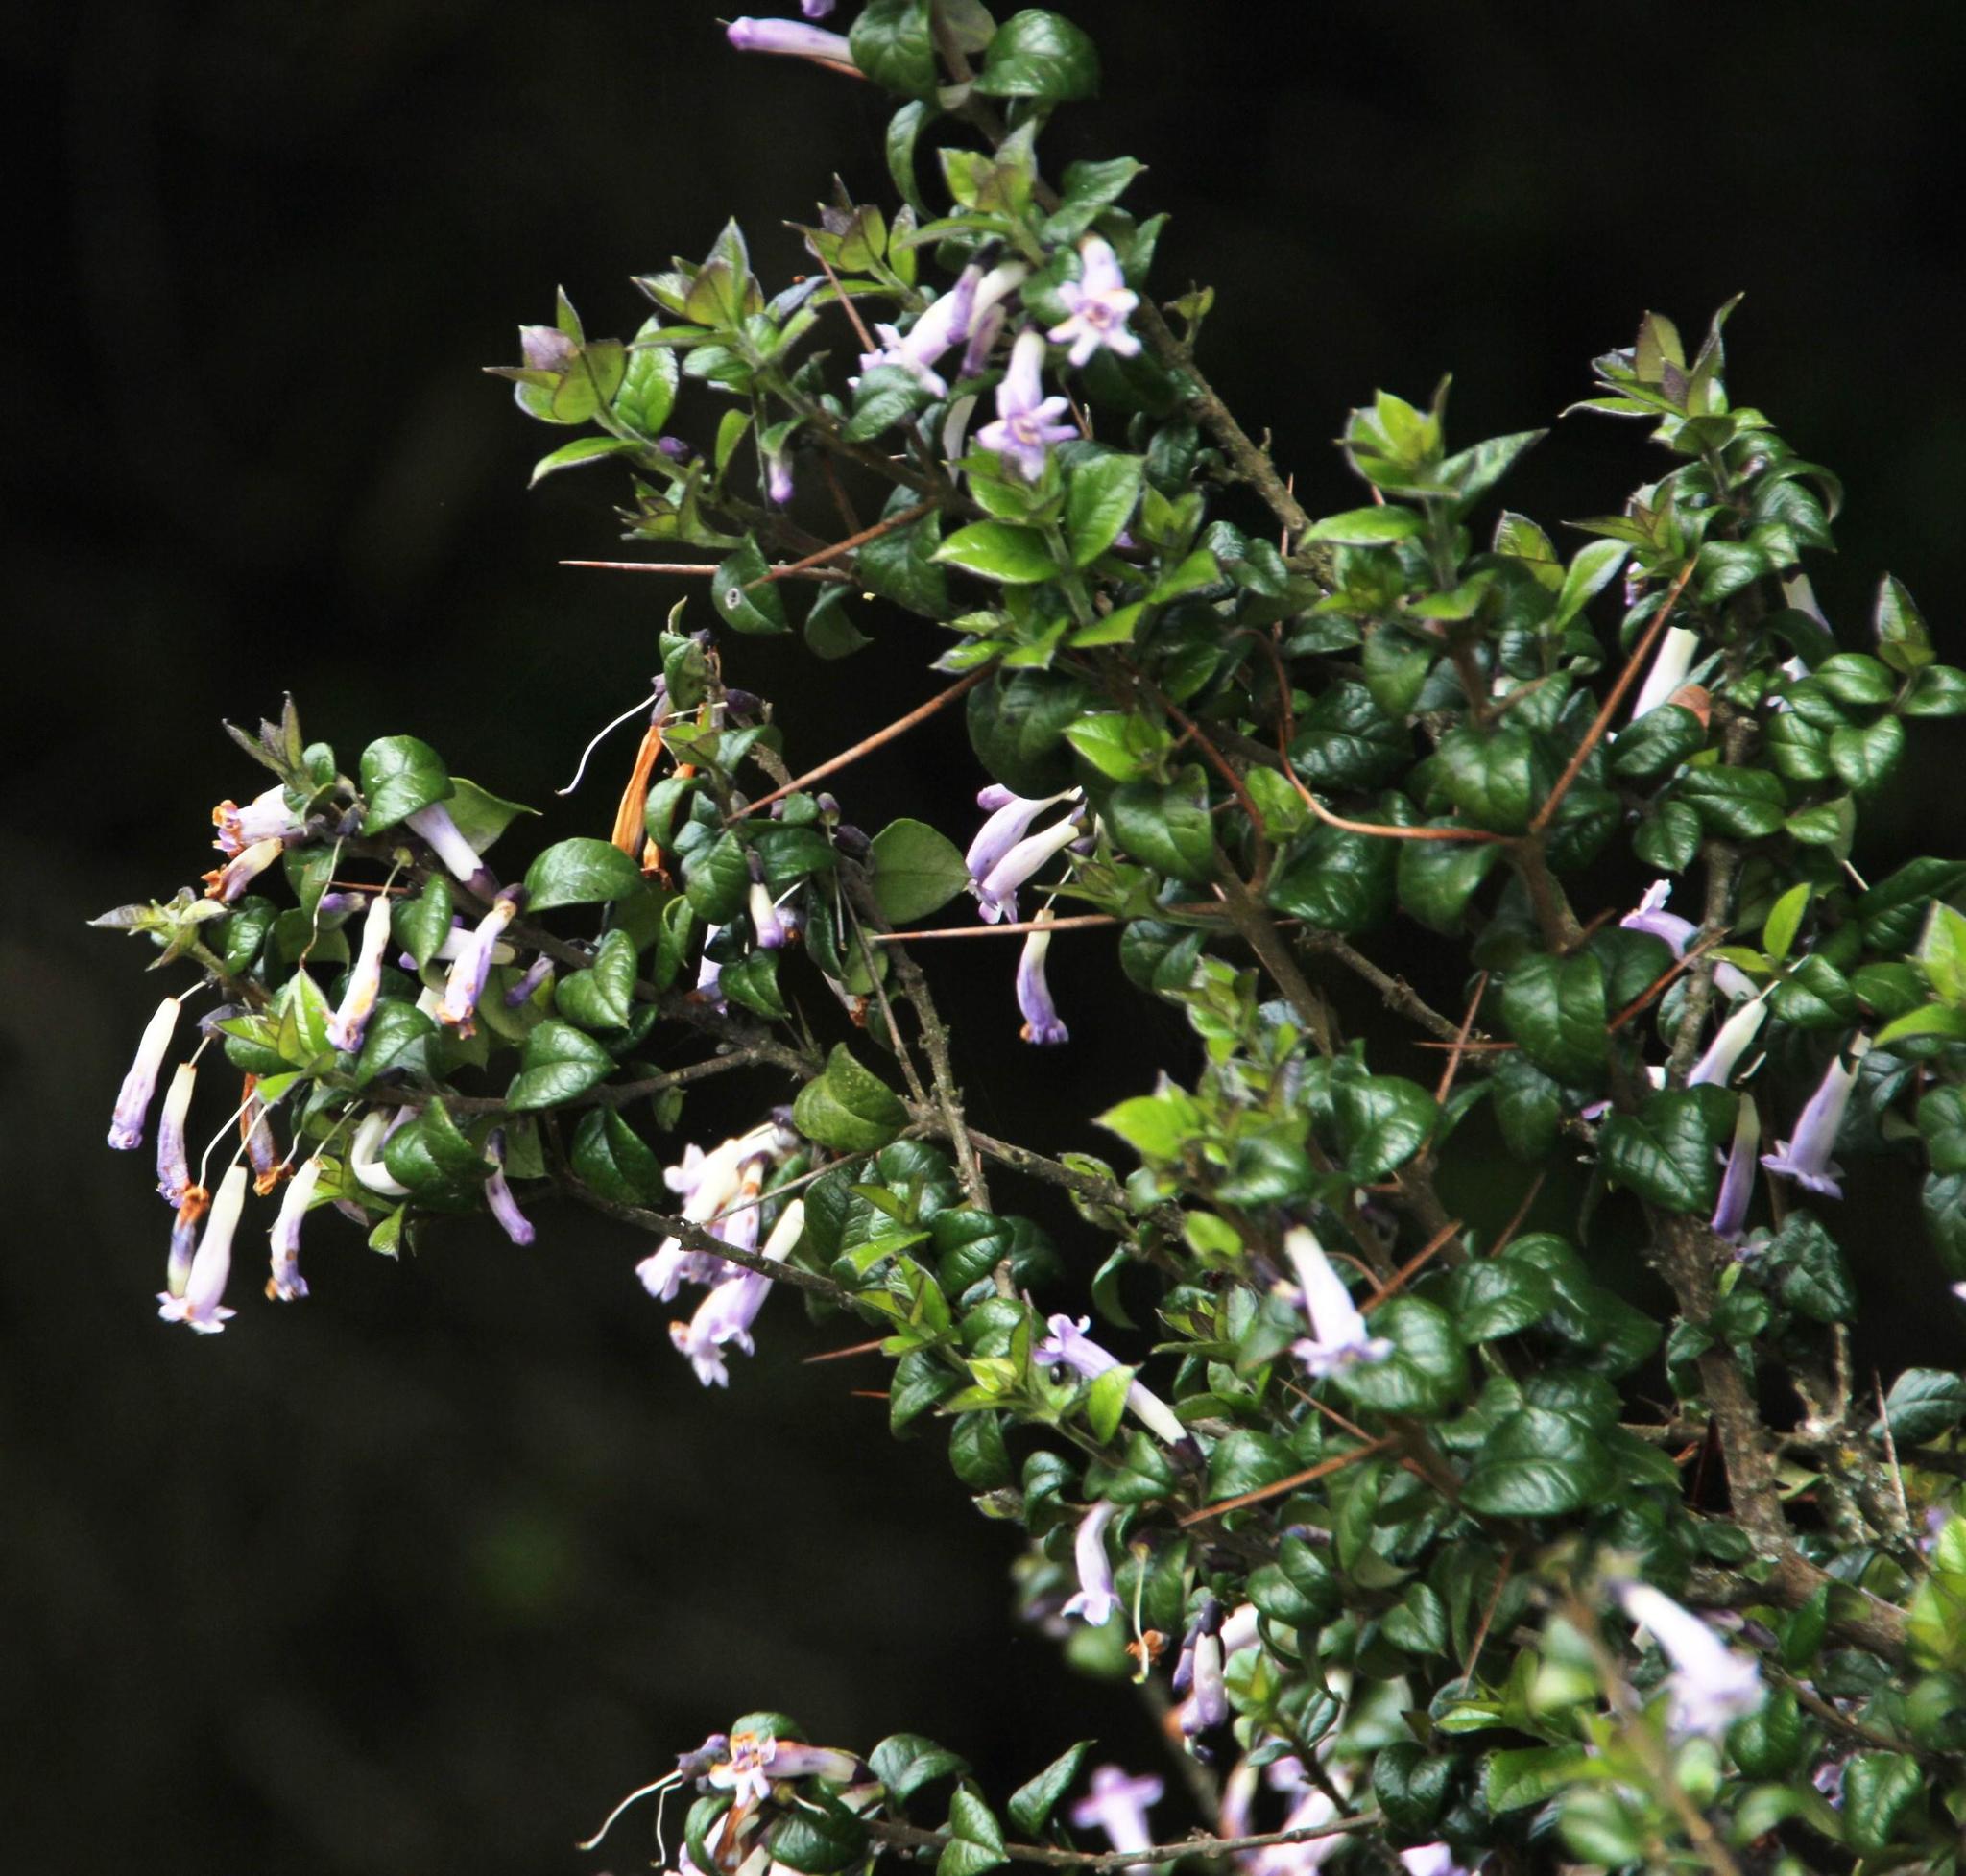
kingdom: Plantae
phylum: Tracheophyta
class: Magnoliopsida
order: Lamiales
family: Verbenaceae
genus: Rhaphithamnus
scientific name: Rhaphithamnus spinosus
